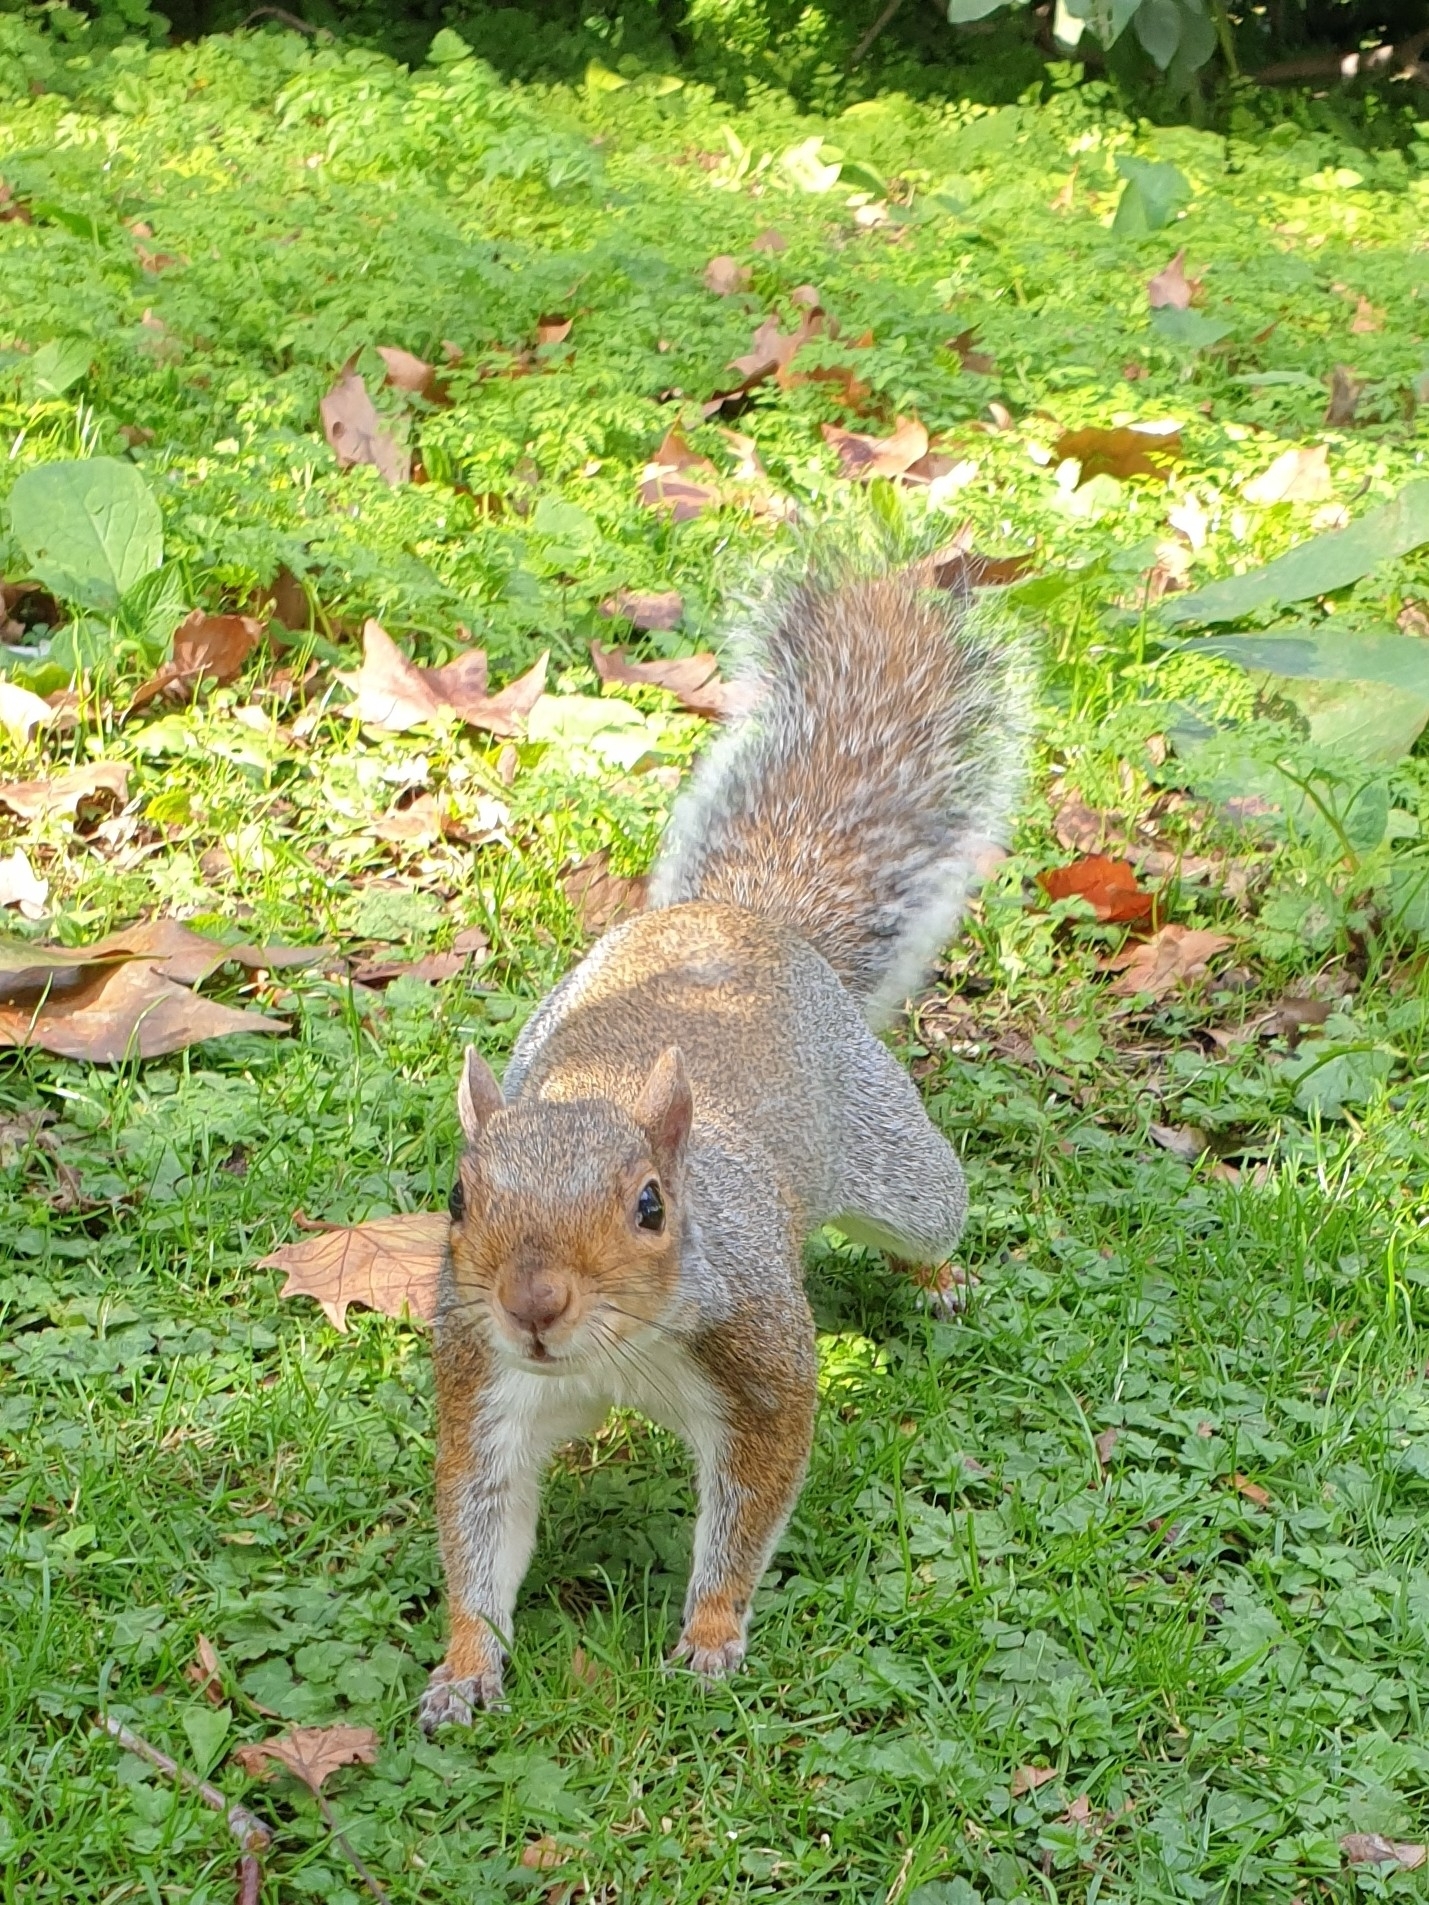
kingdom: Animalia
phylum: Chordata
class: Mammalia
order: Rodentia
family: Sciuridae
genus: Sciurus
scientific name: Sciurus carolinensis
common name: Eastern gray squirrel
